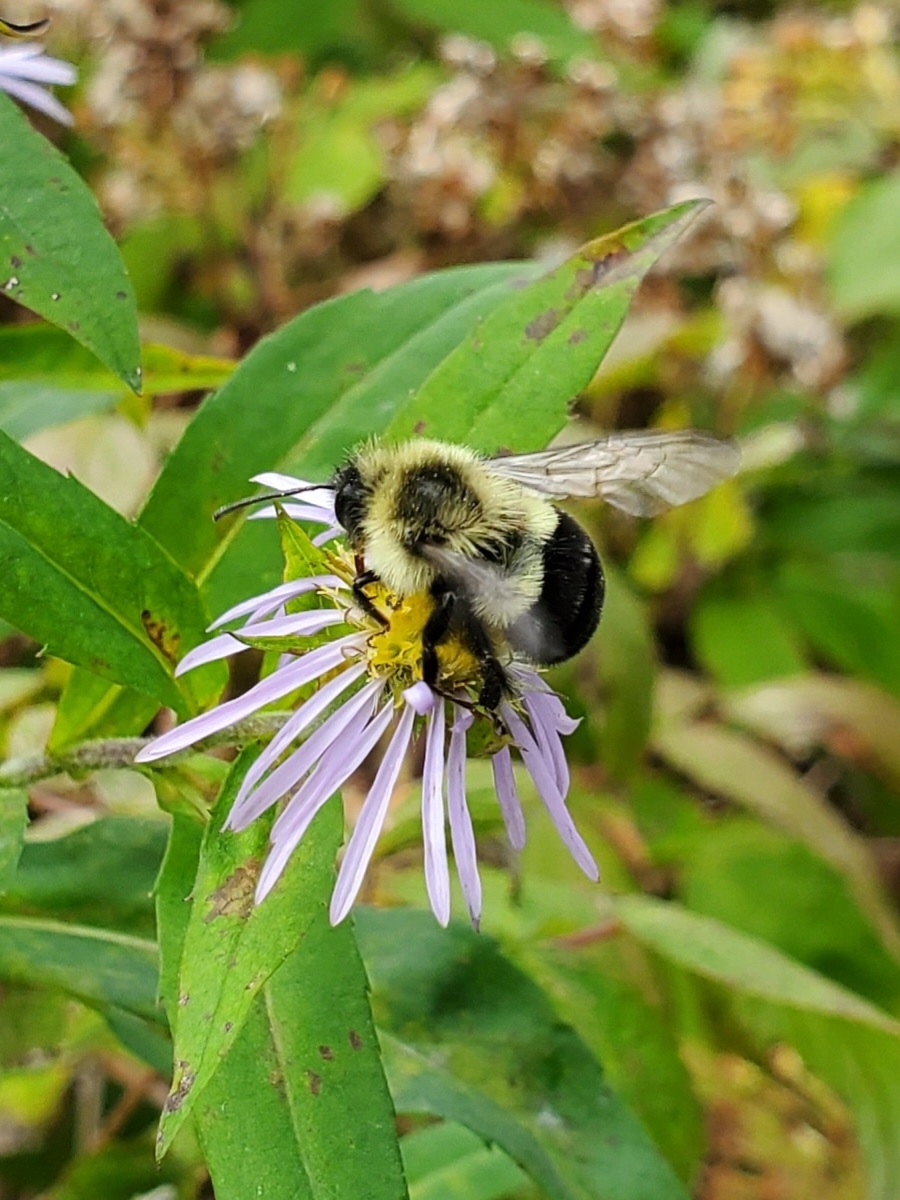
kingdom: Animalia
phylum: Arthropoda
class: Insecta
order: Hymenoptera
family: Apidae
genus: Bombus
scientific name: Bombus impatiens
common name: Common eastern bumble bee
